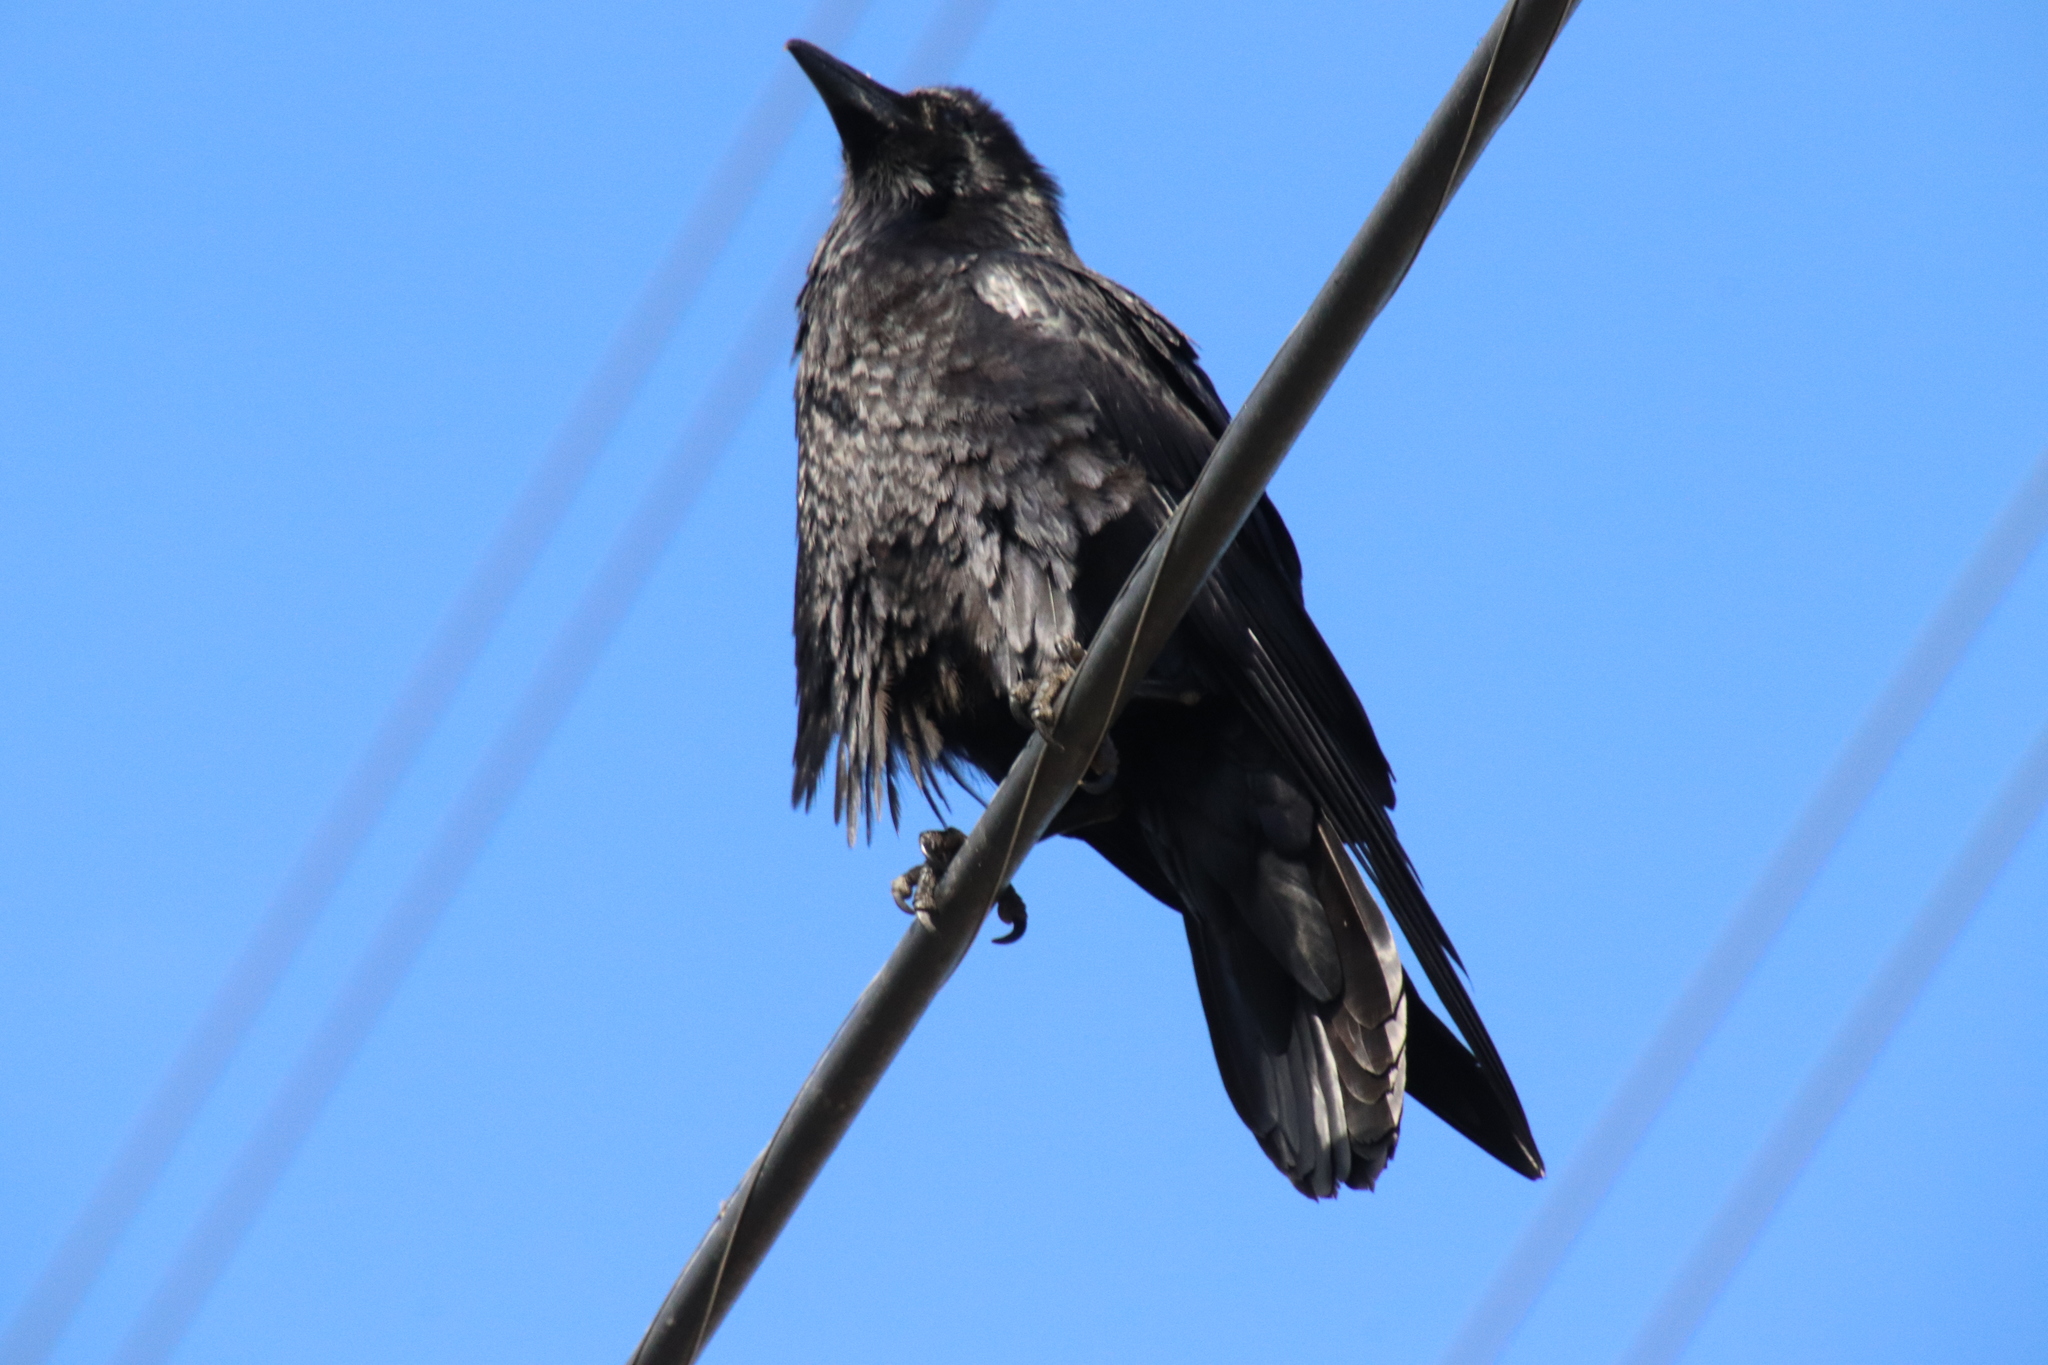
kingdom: Animalia
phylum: Chordata
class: Aves
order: Passeriformes
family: Corvidae
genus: Corvus
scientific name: Corvus corax
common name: Common raven
